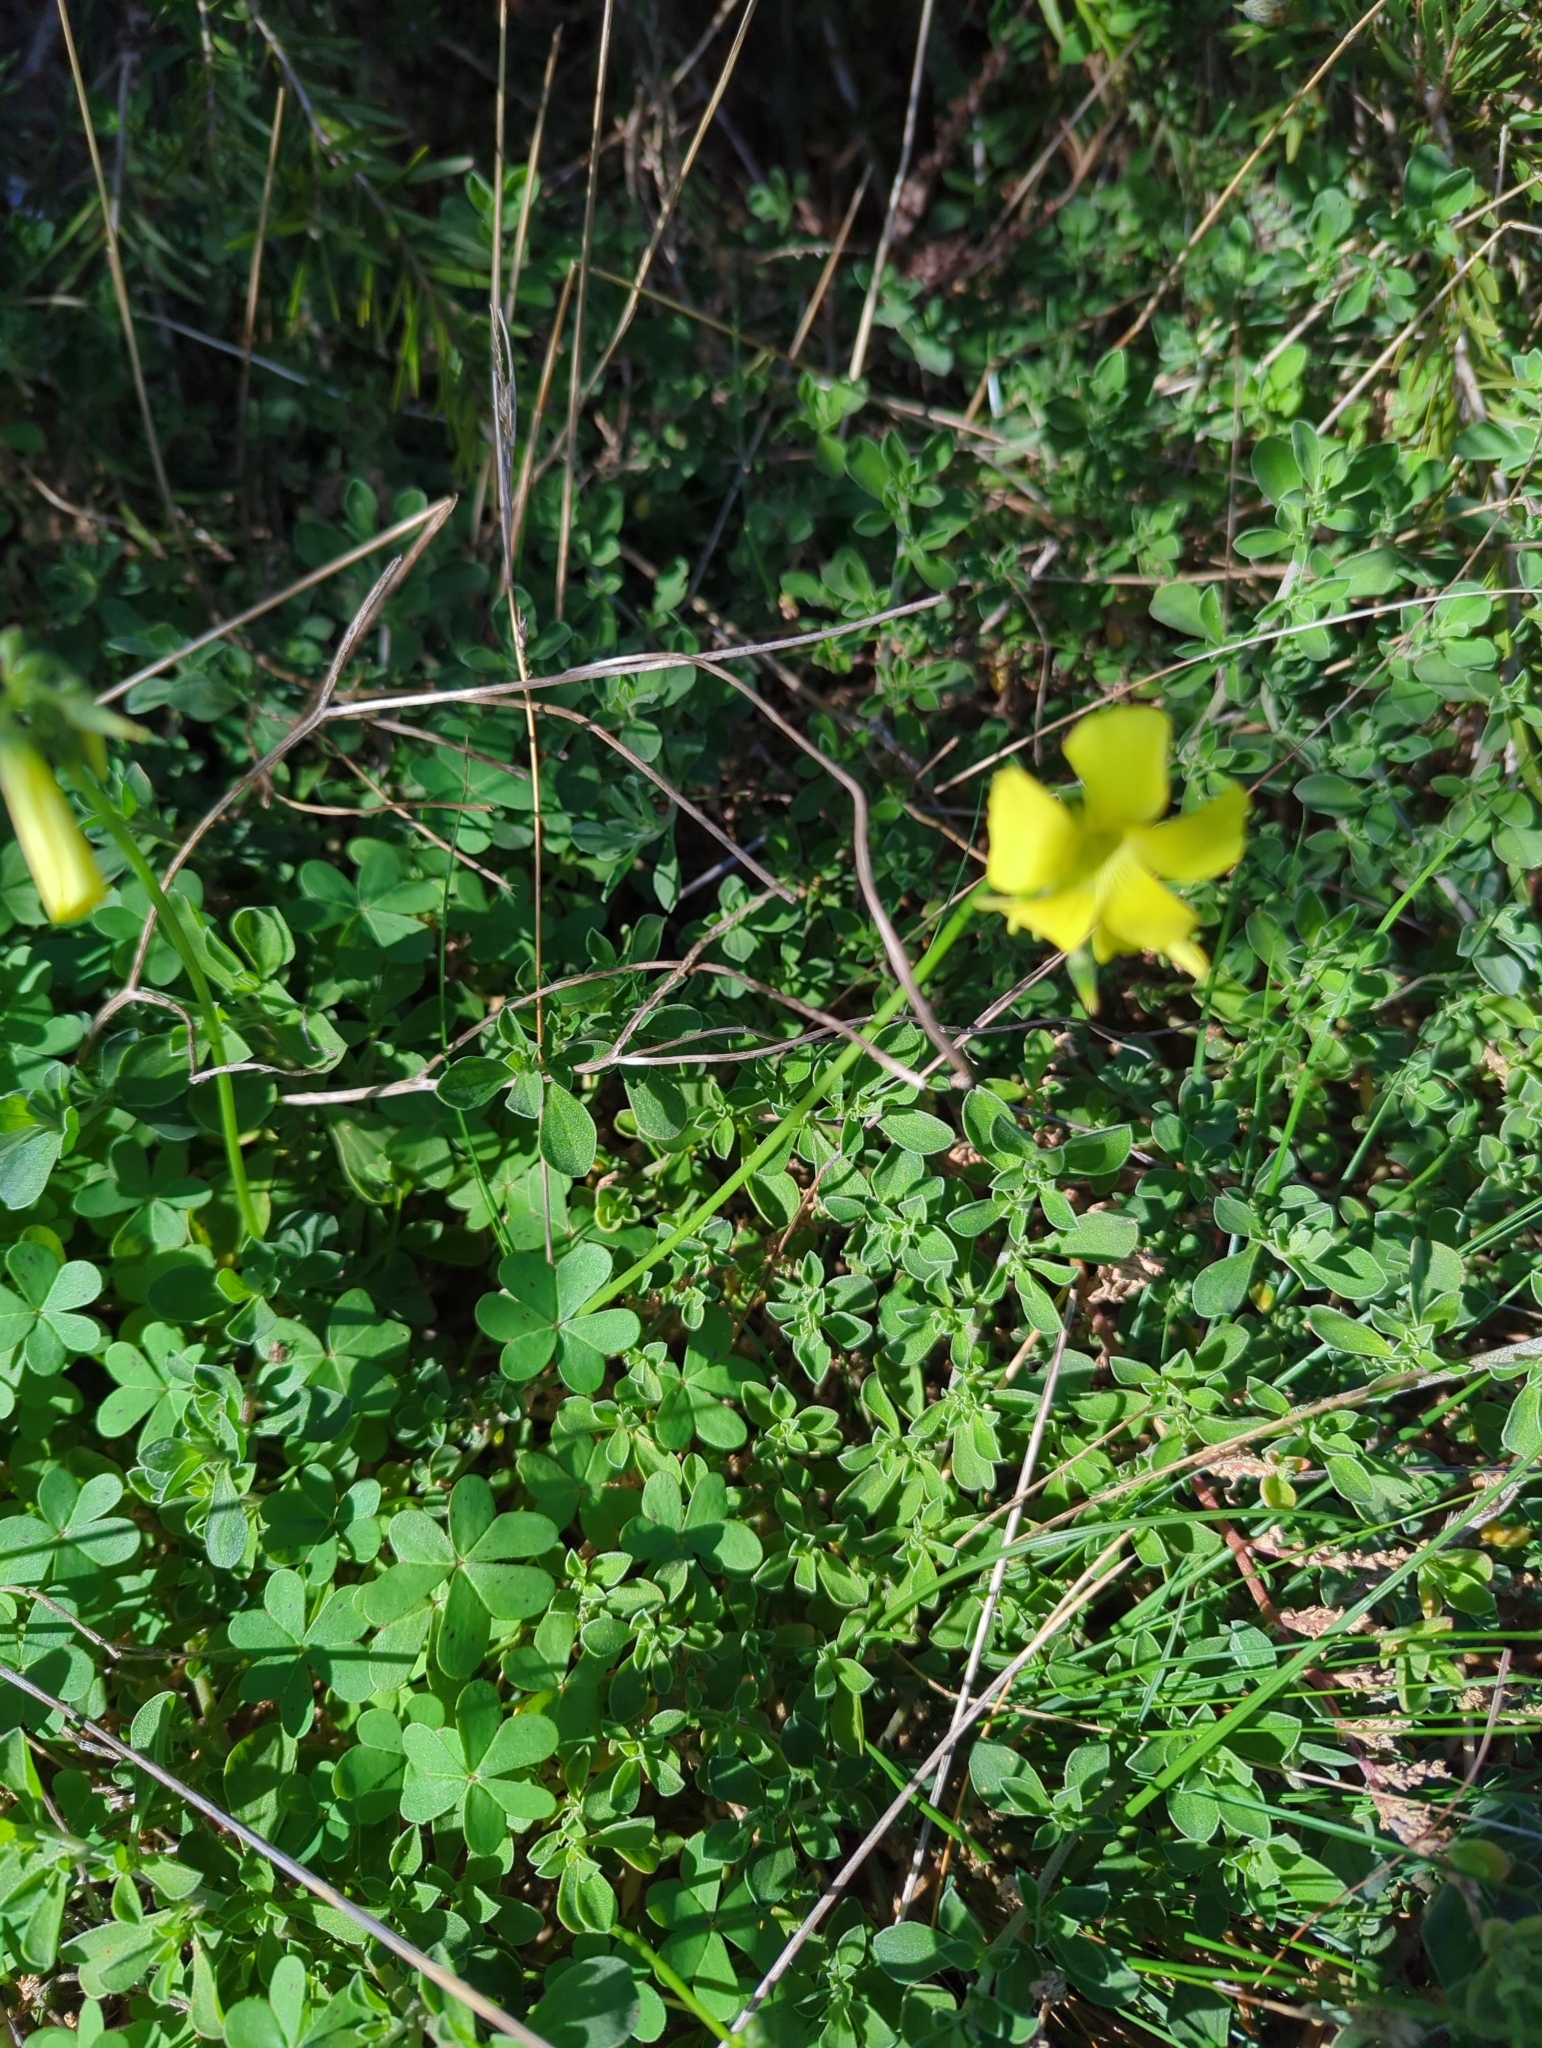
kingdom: Plantae
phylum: Tracheophyta
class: Magnoliopsida
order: Oxalidales
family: Oxalidaceae
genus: Oxalis
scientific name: Oxalis pes-caprae
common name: Bermuda-buttercup
